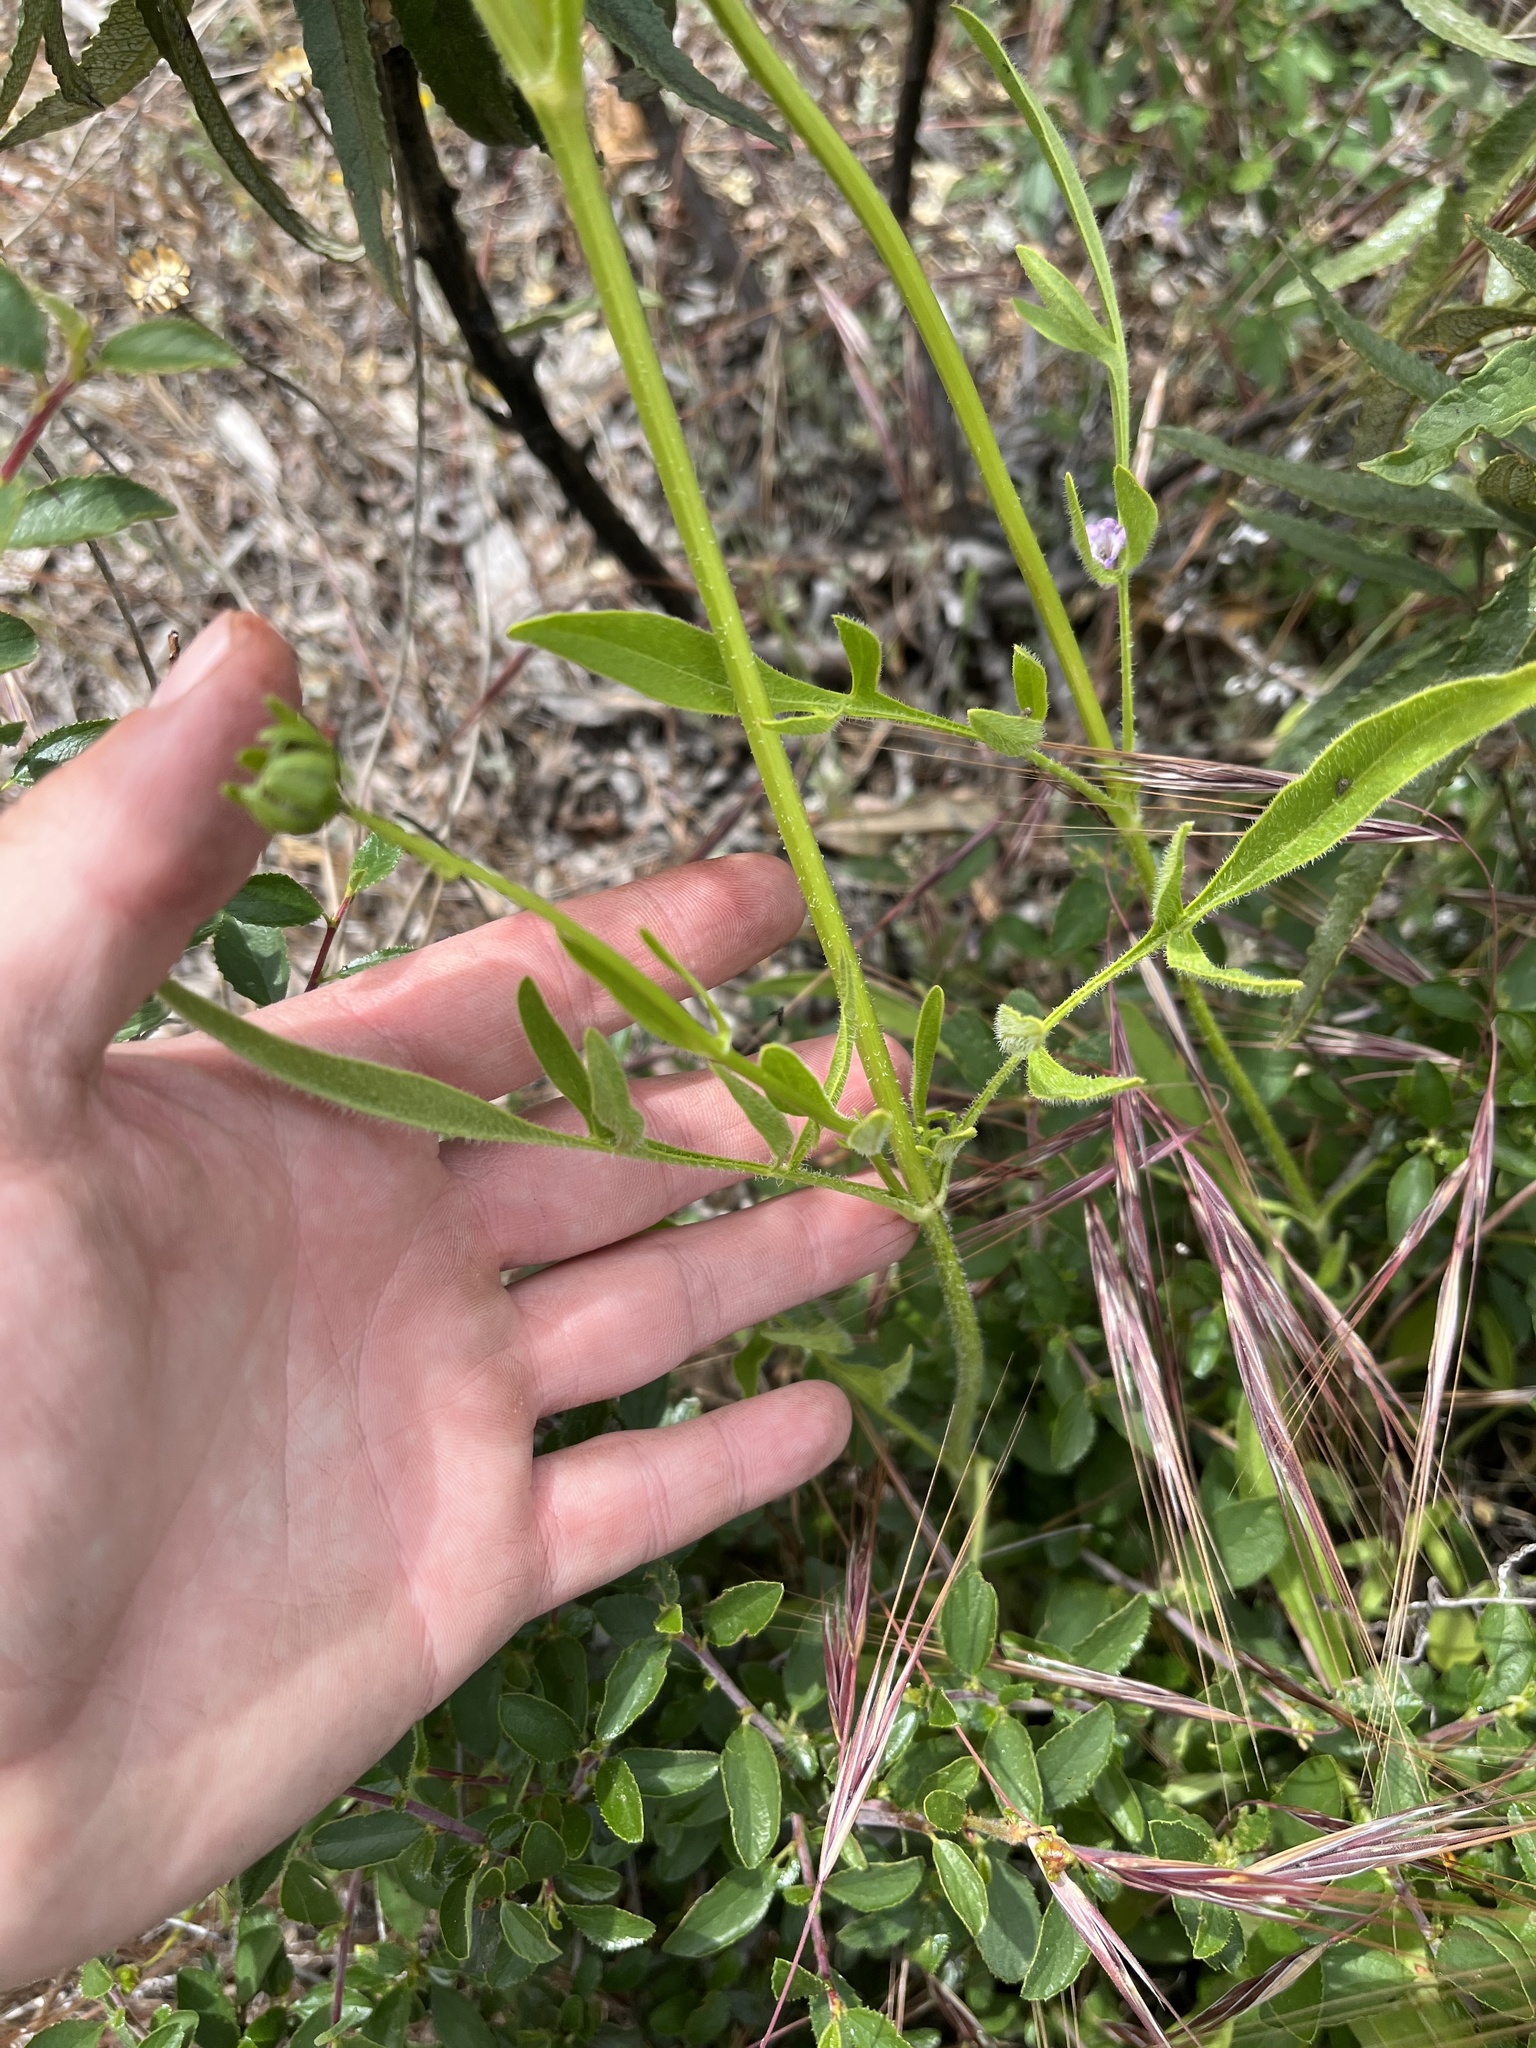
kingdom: Plantae
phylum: Tracheophyta
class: Magnoliopsida
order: Asterales
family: Asteraceae
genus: Coreopsis
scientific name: Coreopsis lanceolata
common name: Garden coreopsis
